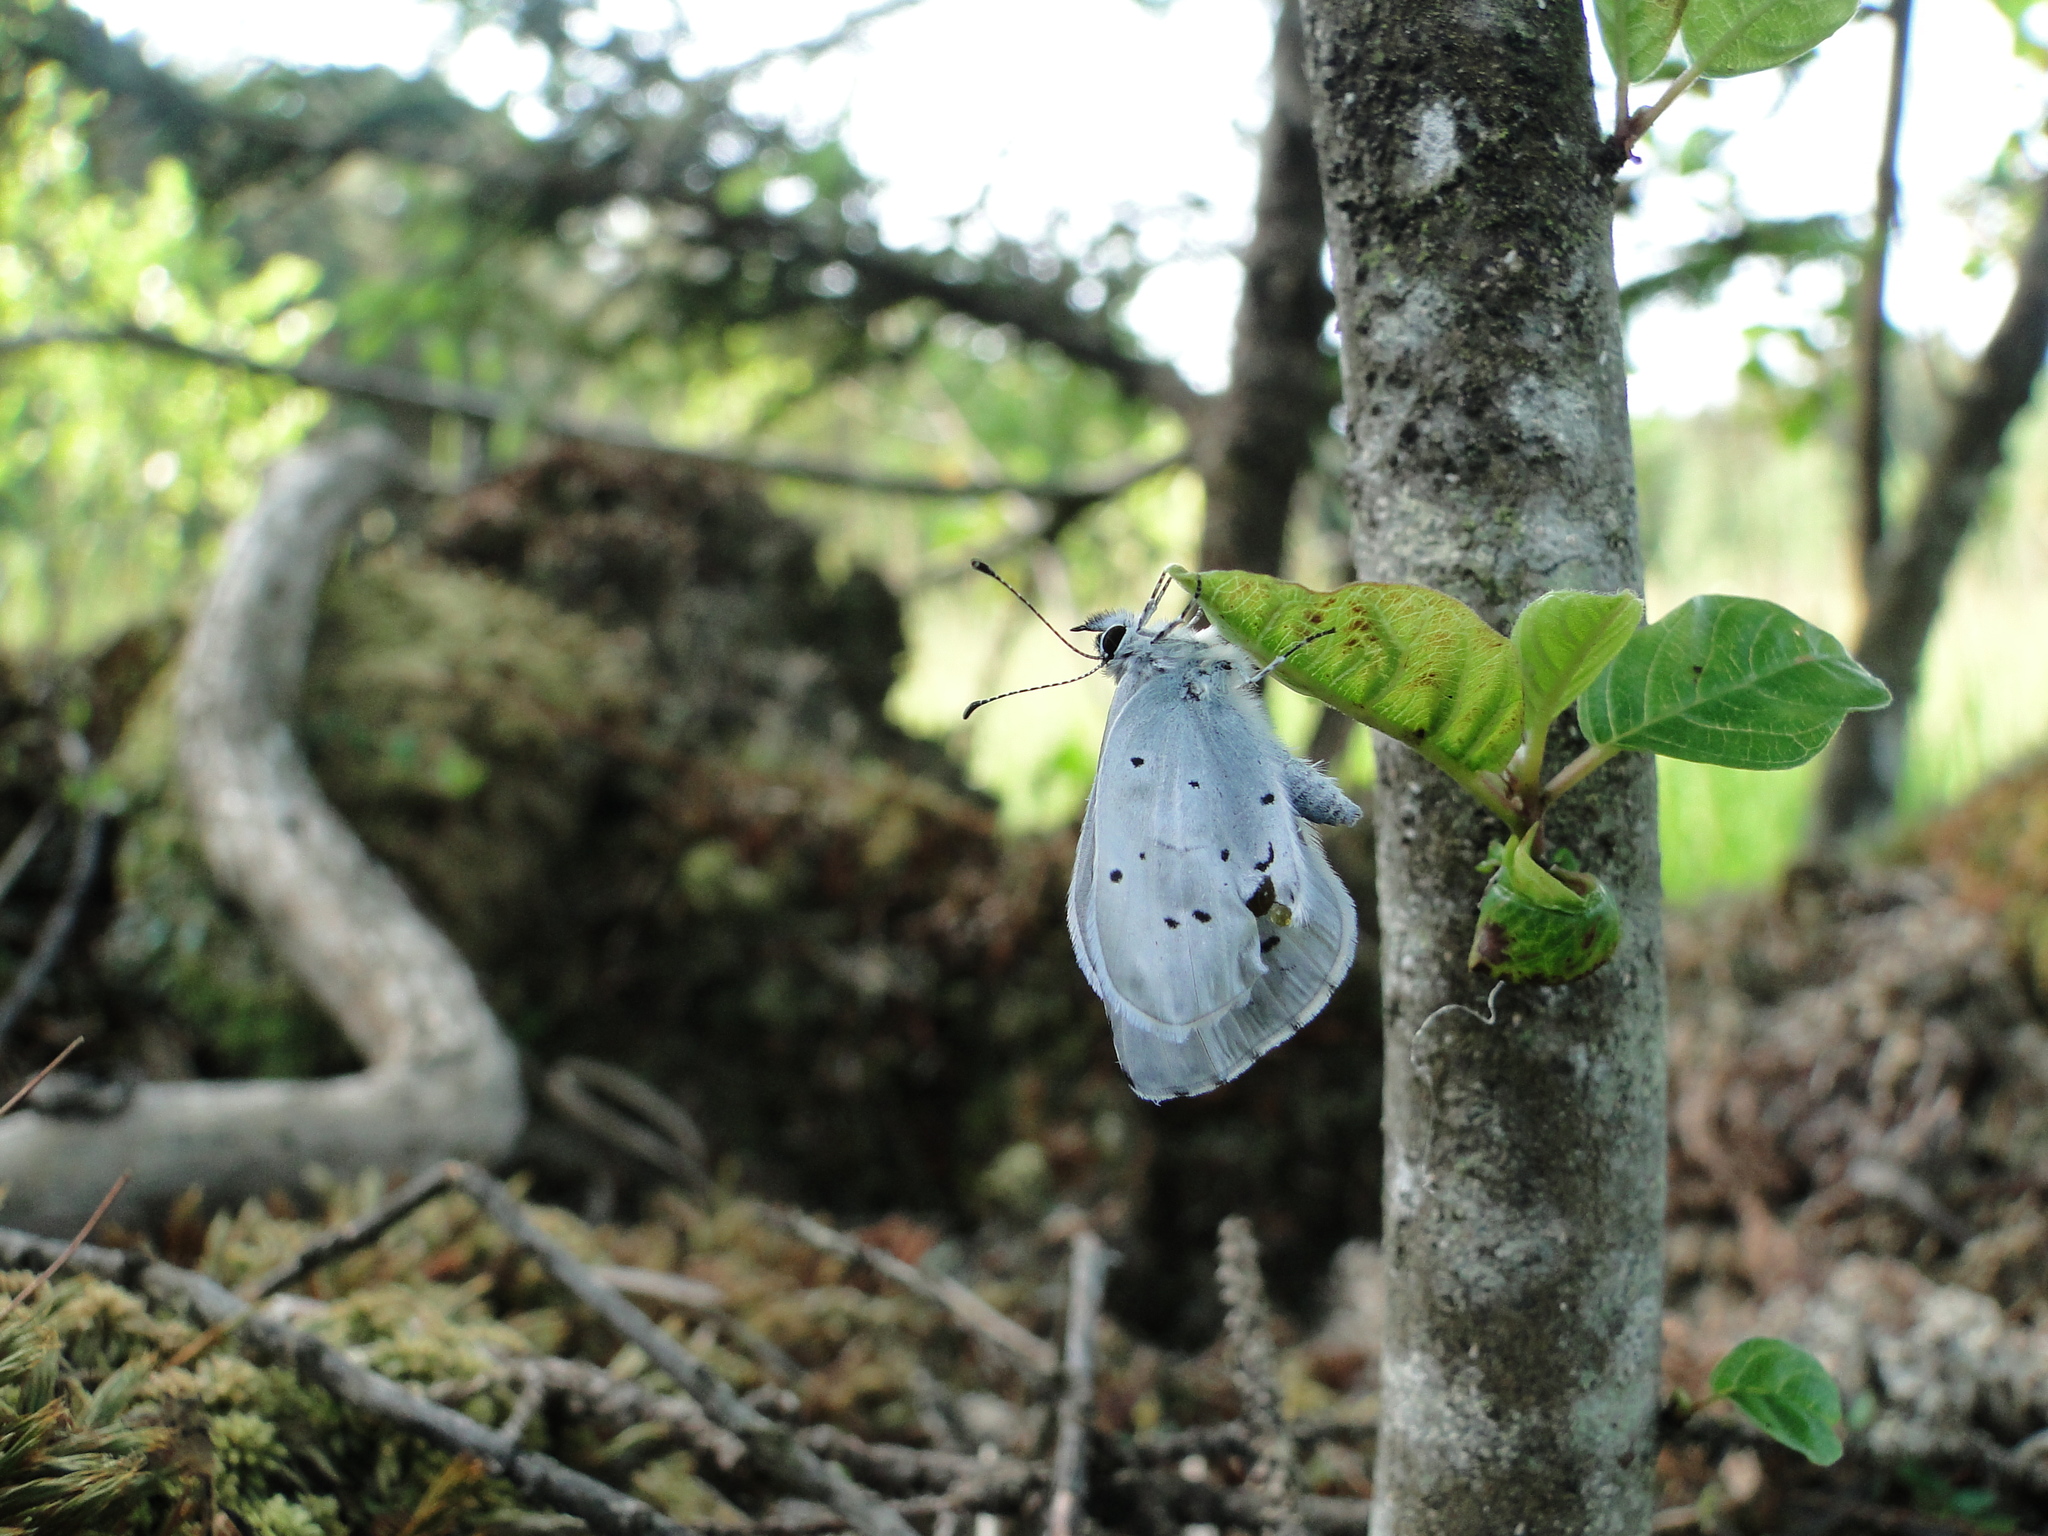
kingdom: Animalia
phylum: Arthropoda
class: Insecta
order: Lepidoptera
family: Lycaenidae
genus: Celastrina
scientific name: Celastrina argiolus
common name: Holly blue
